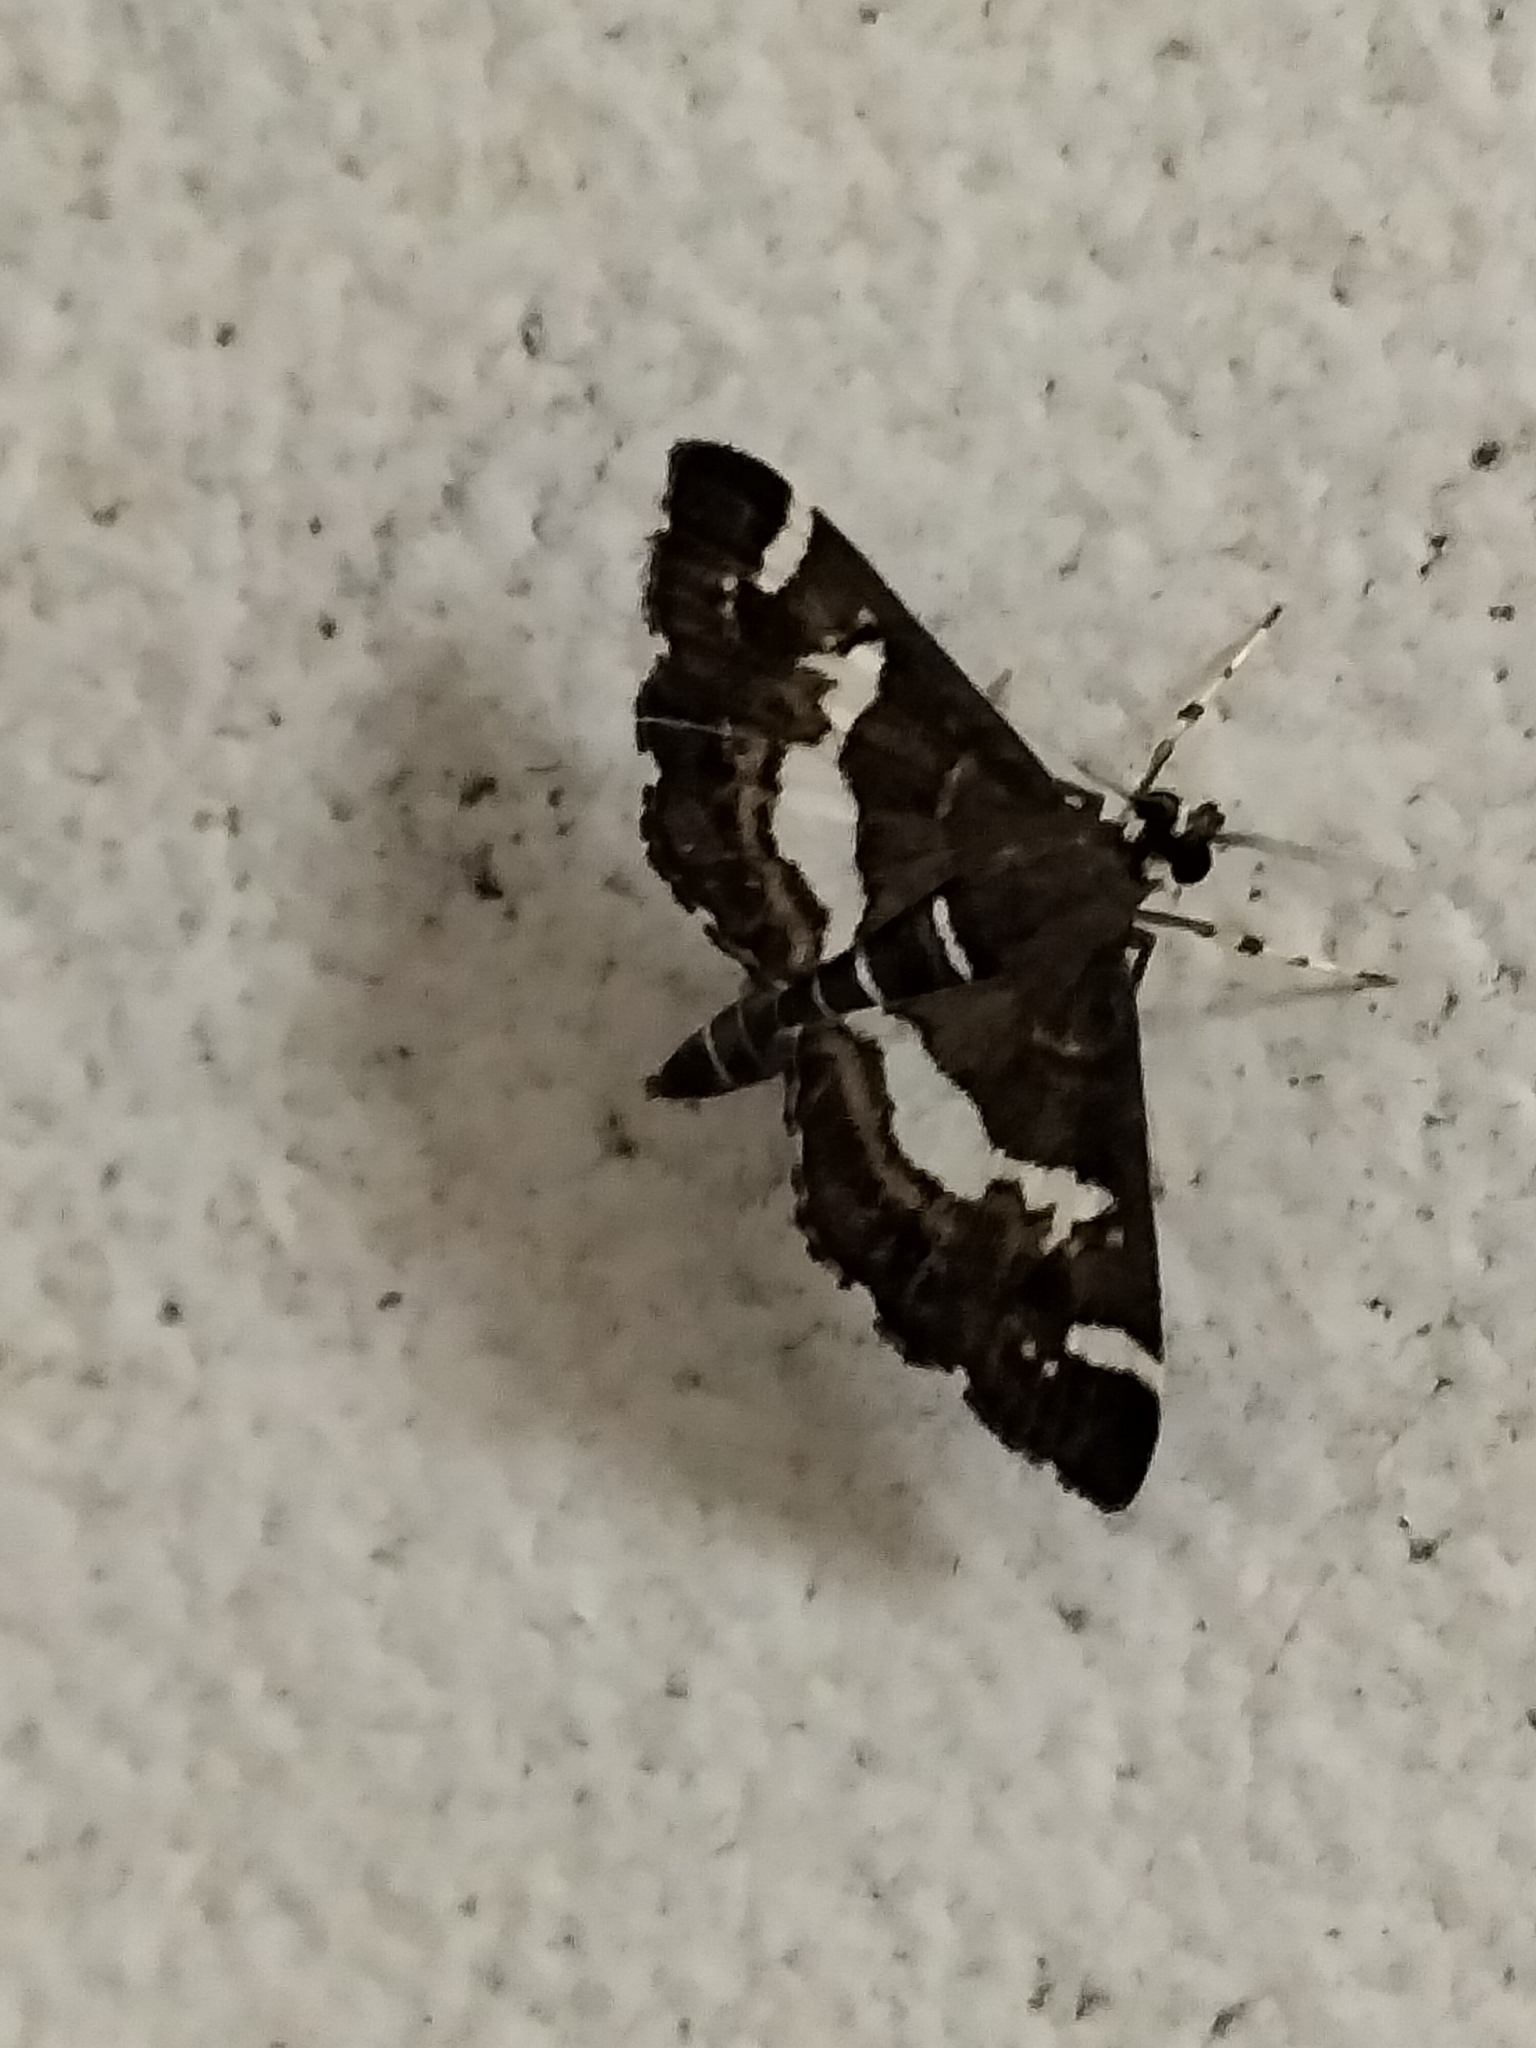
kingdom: Animalia
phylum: Arthropoda
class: Insecta
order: Lepidoptera
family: Crambidae
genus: Spoladea
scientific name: Spoladea recurvalis
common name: Beet webworm moth
